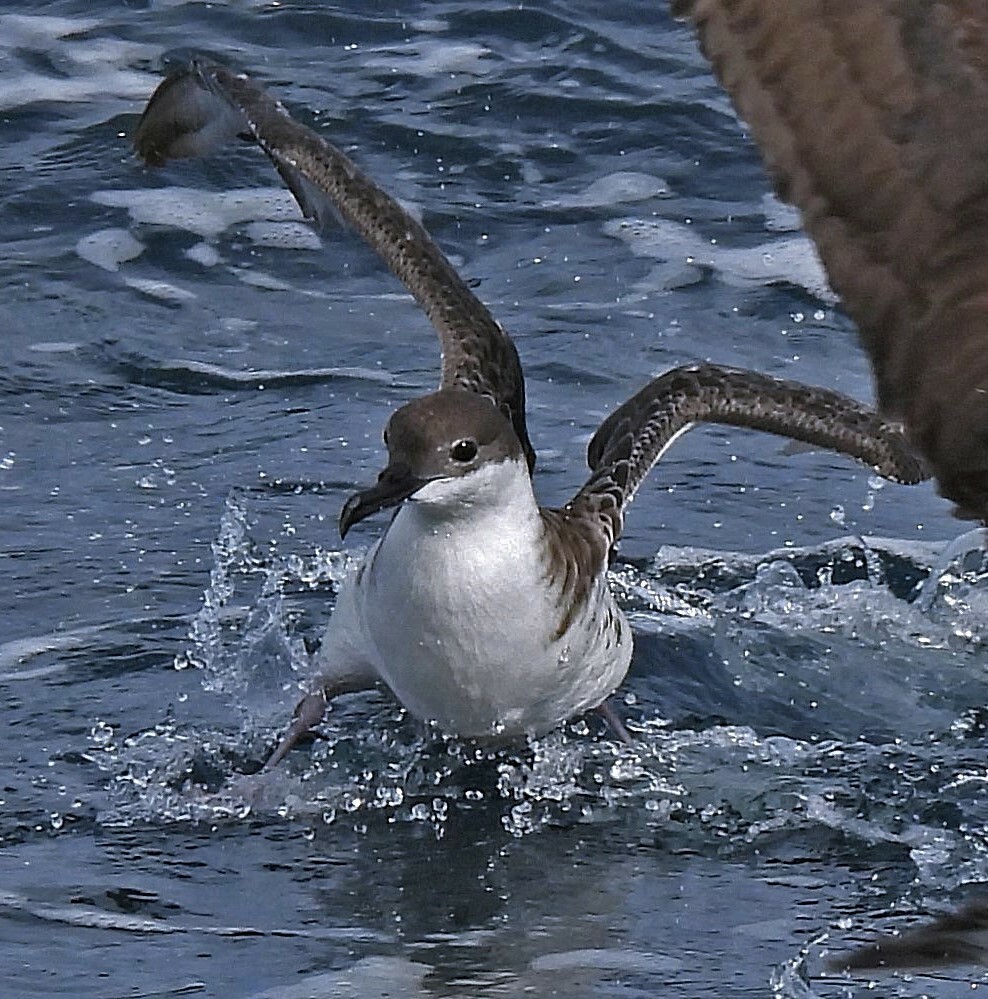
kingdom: Animalia
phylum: Chordata
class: Aves
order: Procellariiformes
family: Procellariidae
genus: Puffinus
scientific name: Puffinus gravis
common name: Great shearwater
